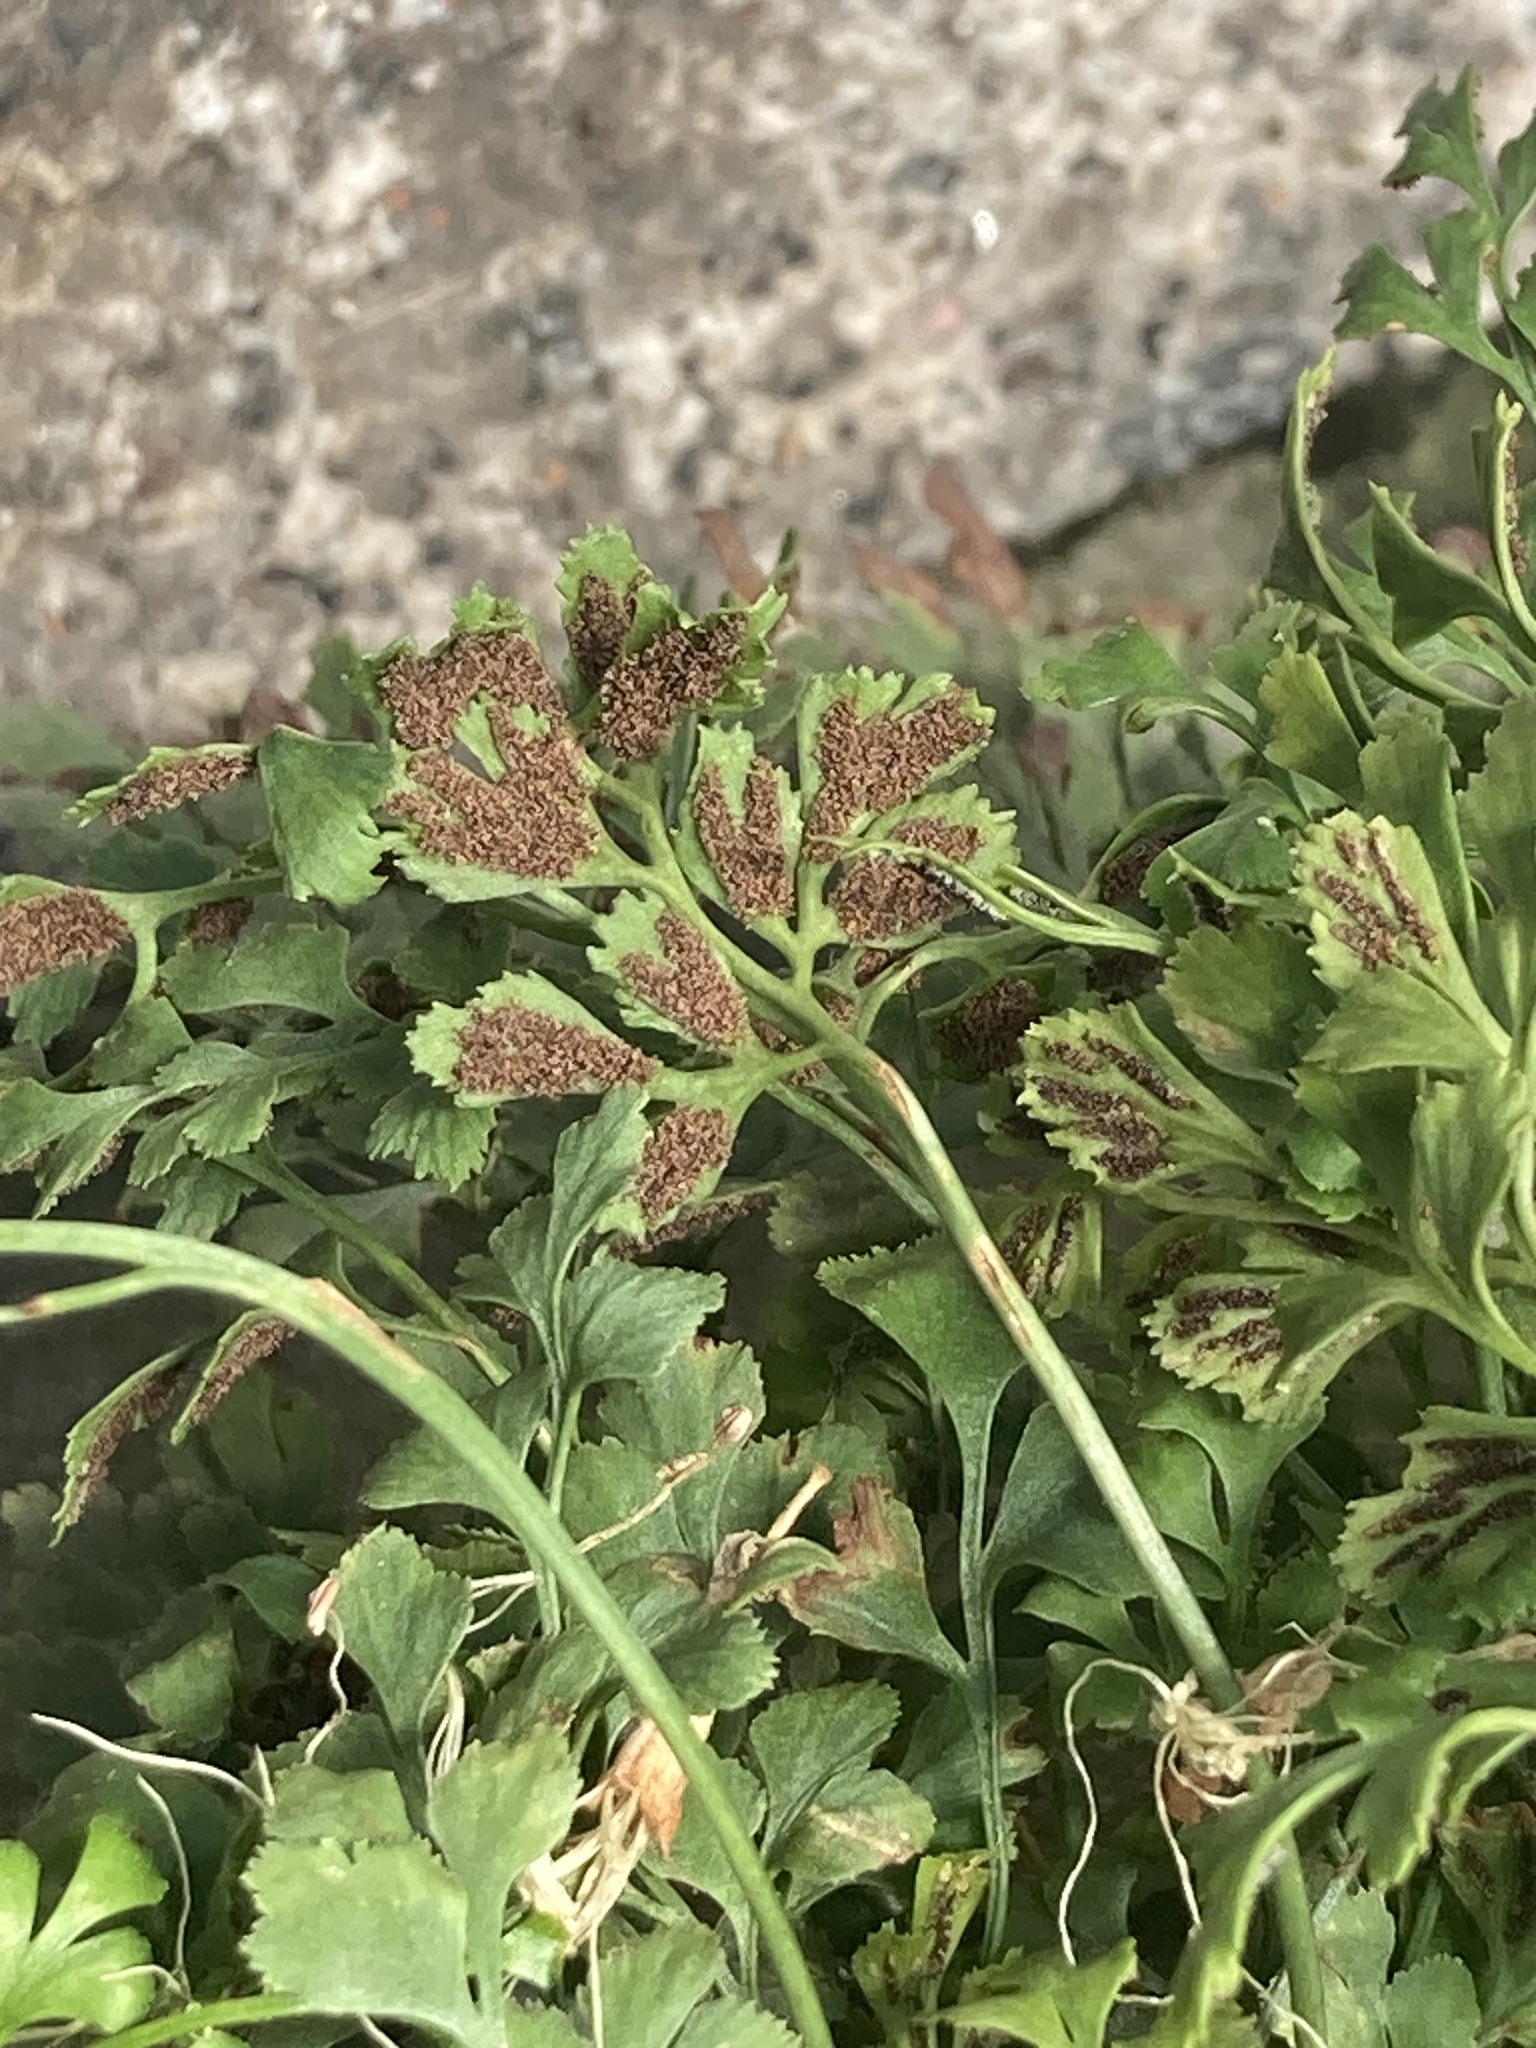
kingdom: Plantae
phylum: Tracheophyta
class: Polypodiopsida
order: Polypodiales
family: Aspleniaceae
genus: Asplenium
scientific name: Asplenium ruta-muraria
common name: Wall-rue
